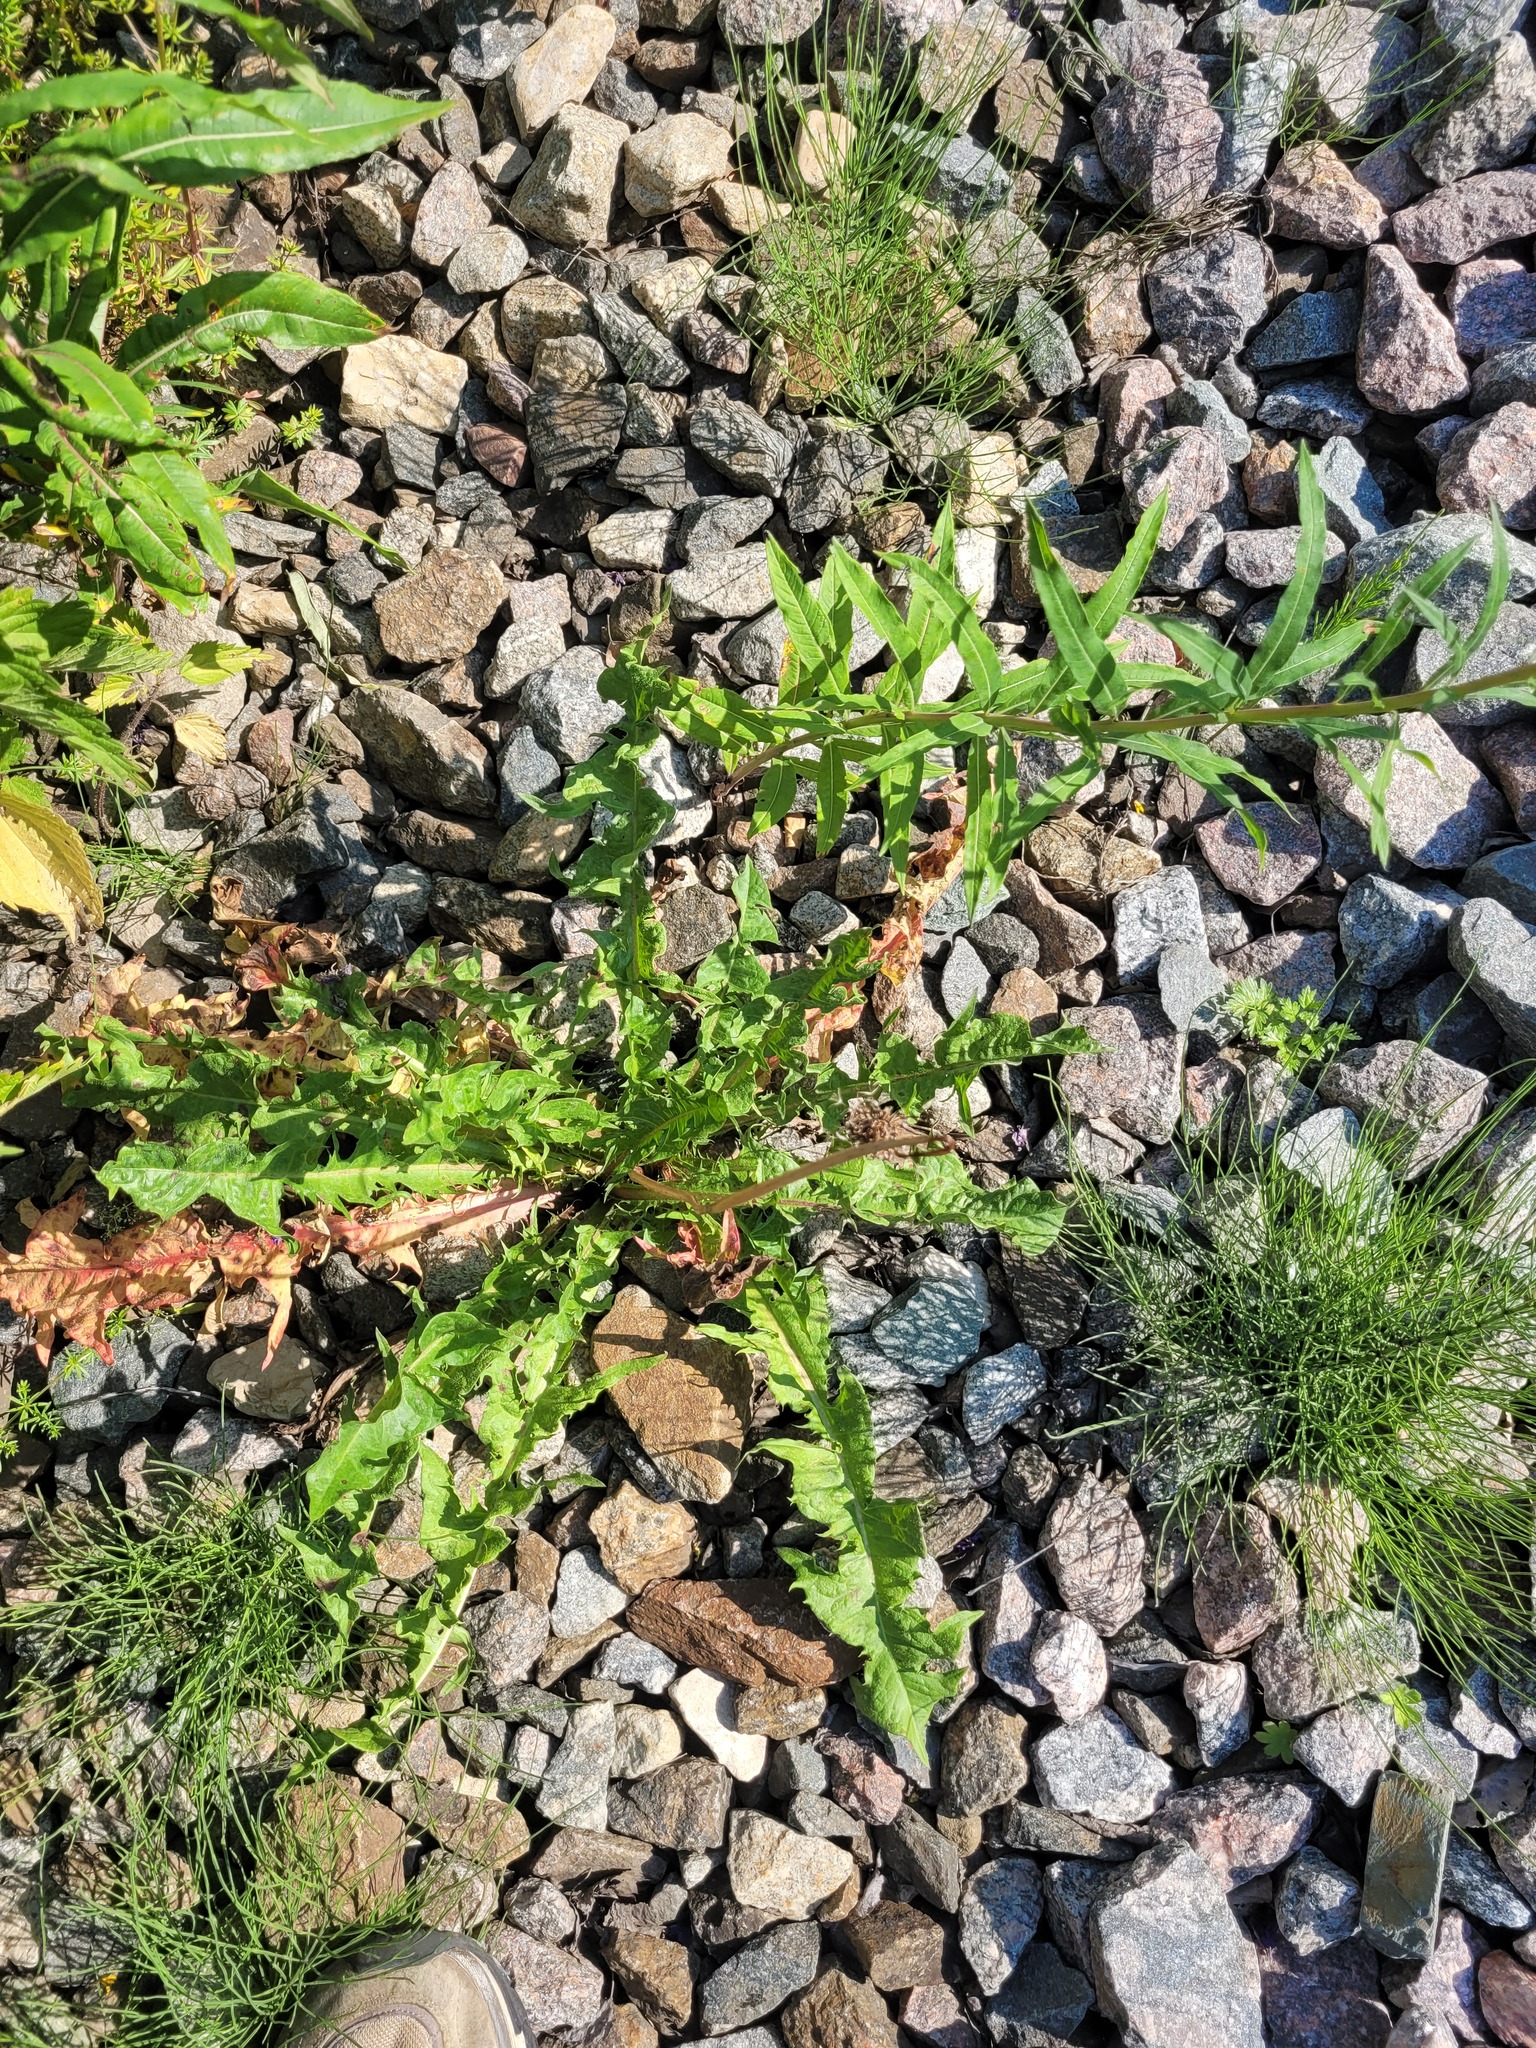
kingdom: Plantae
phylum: Tracheophyta
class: Magnoliopsida
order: Asterales
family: Asteraceae
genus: Taraxacum
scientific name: Taraxacum officinale
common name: Common dandelion
